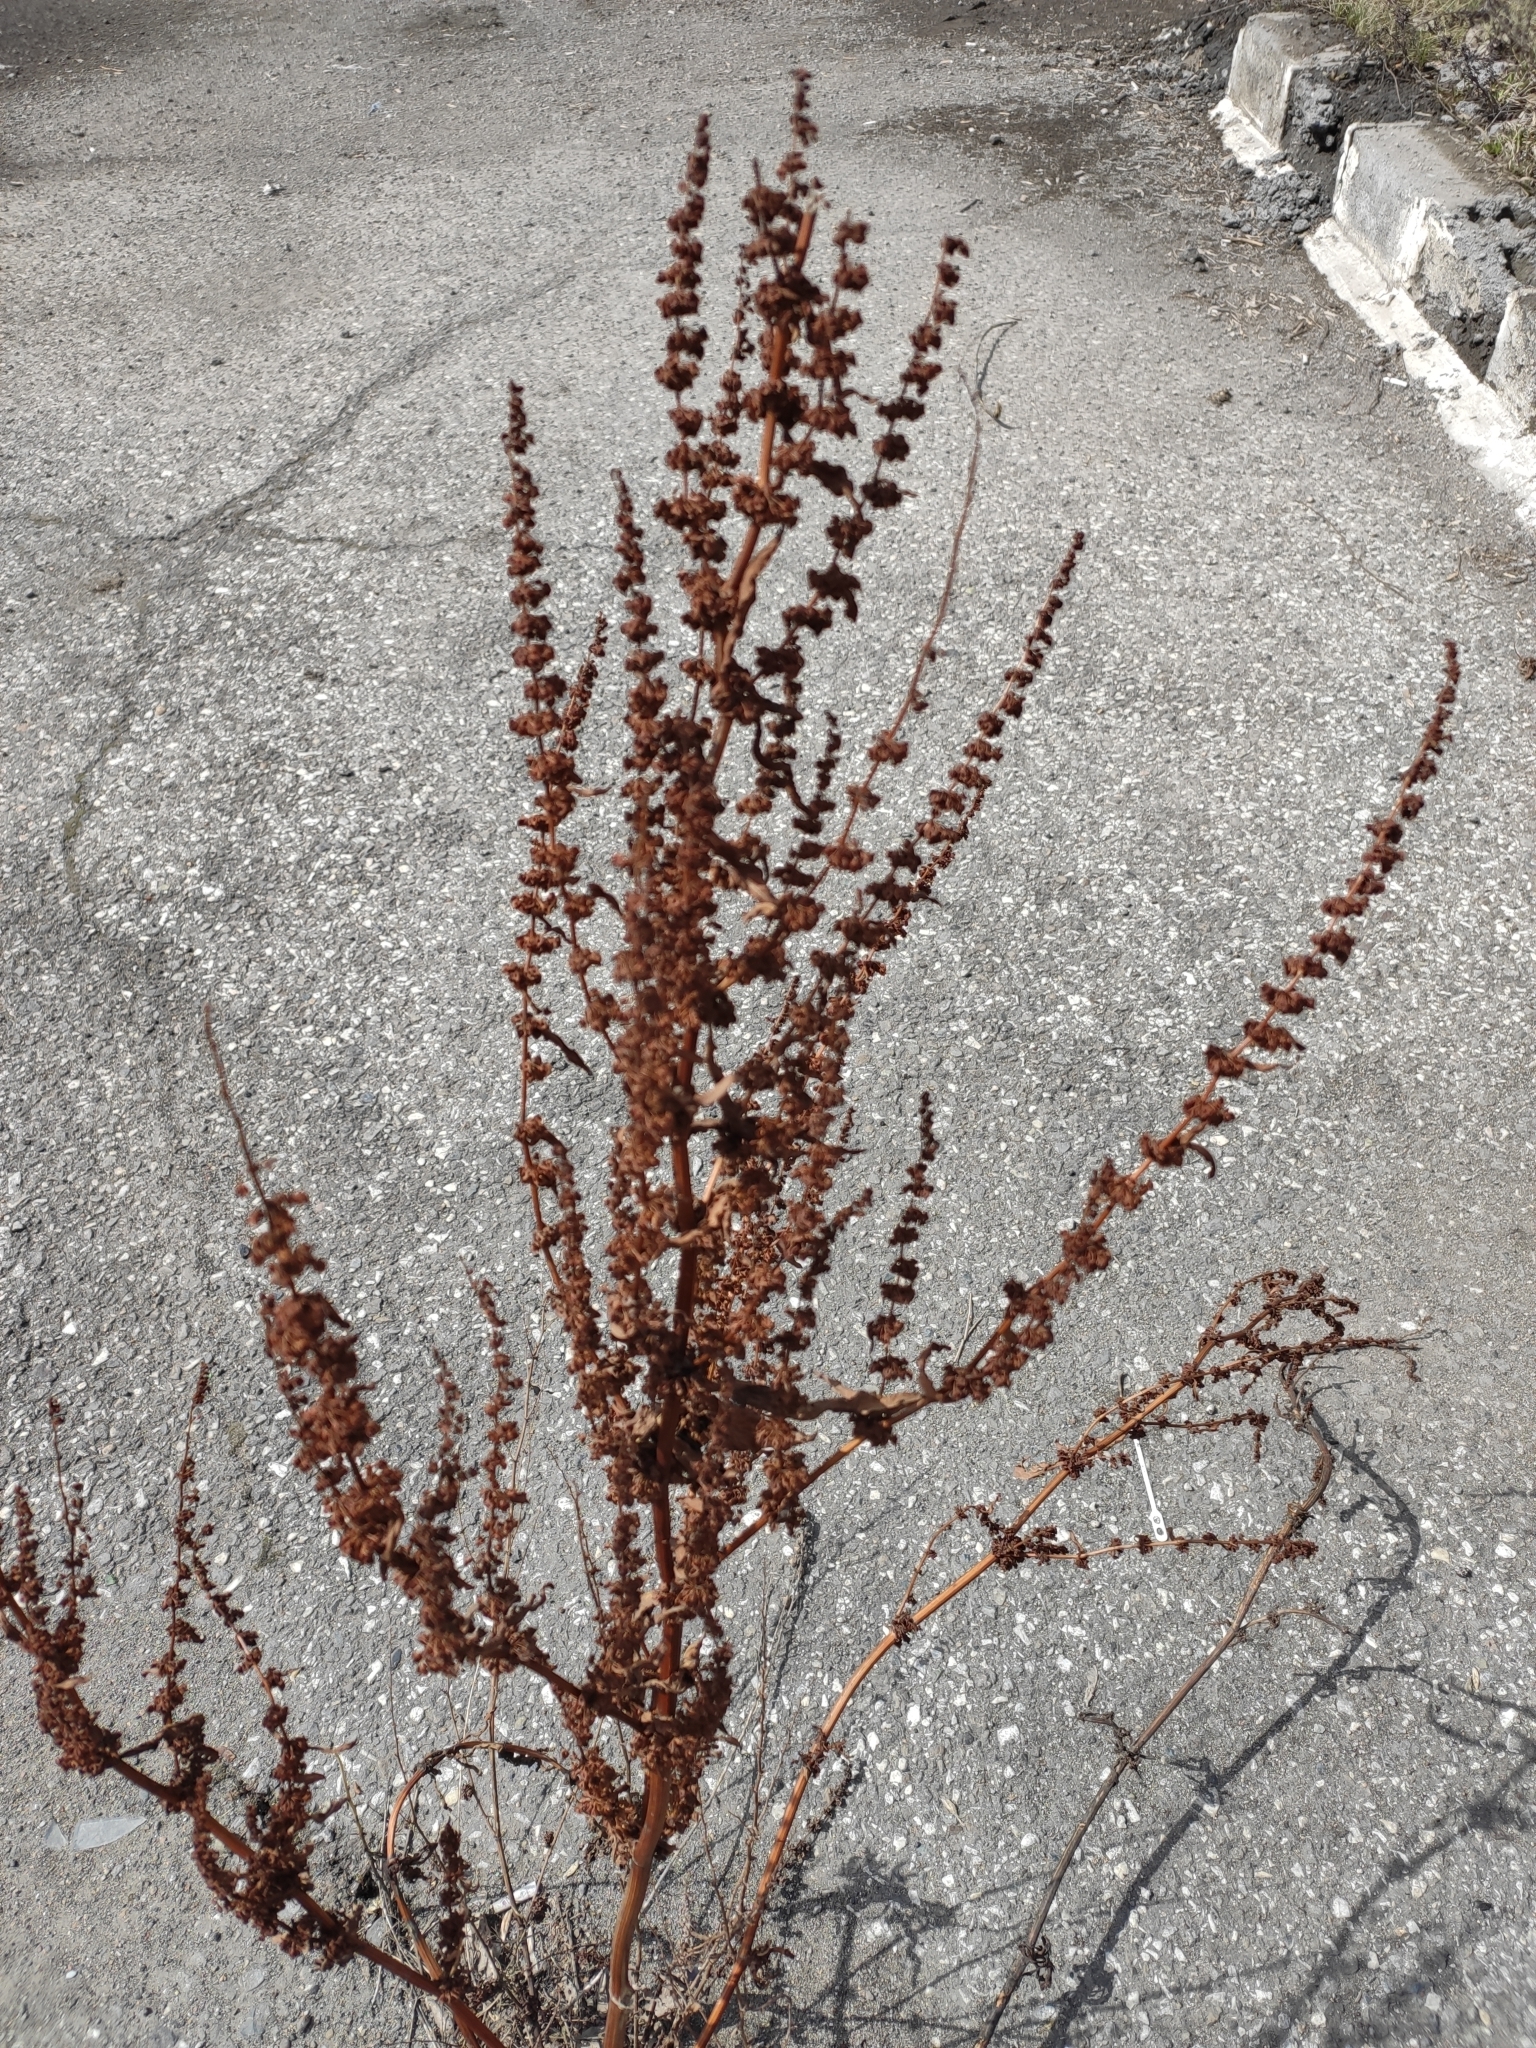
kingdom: Plantae
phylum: Tracheophyta
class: Magnoliopsida
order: Caryophyllales
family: Polygonaceae
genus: Rumex
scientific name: Rumex confertus
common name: Russian dock
